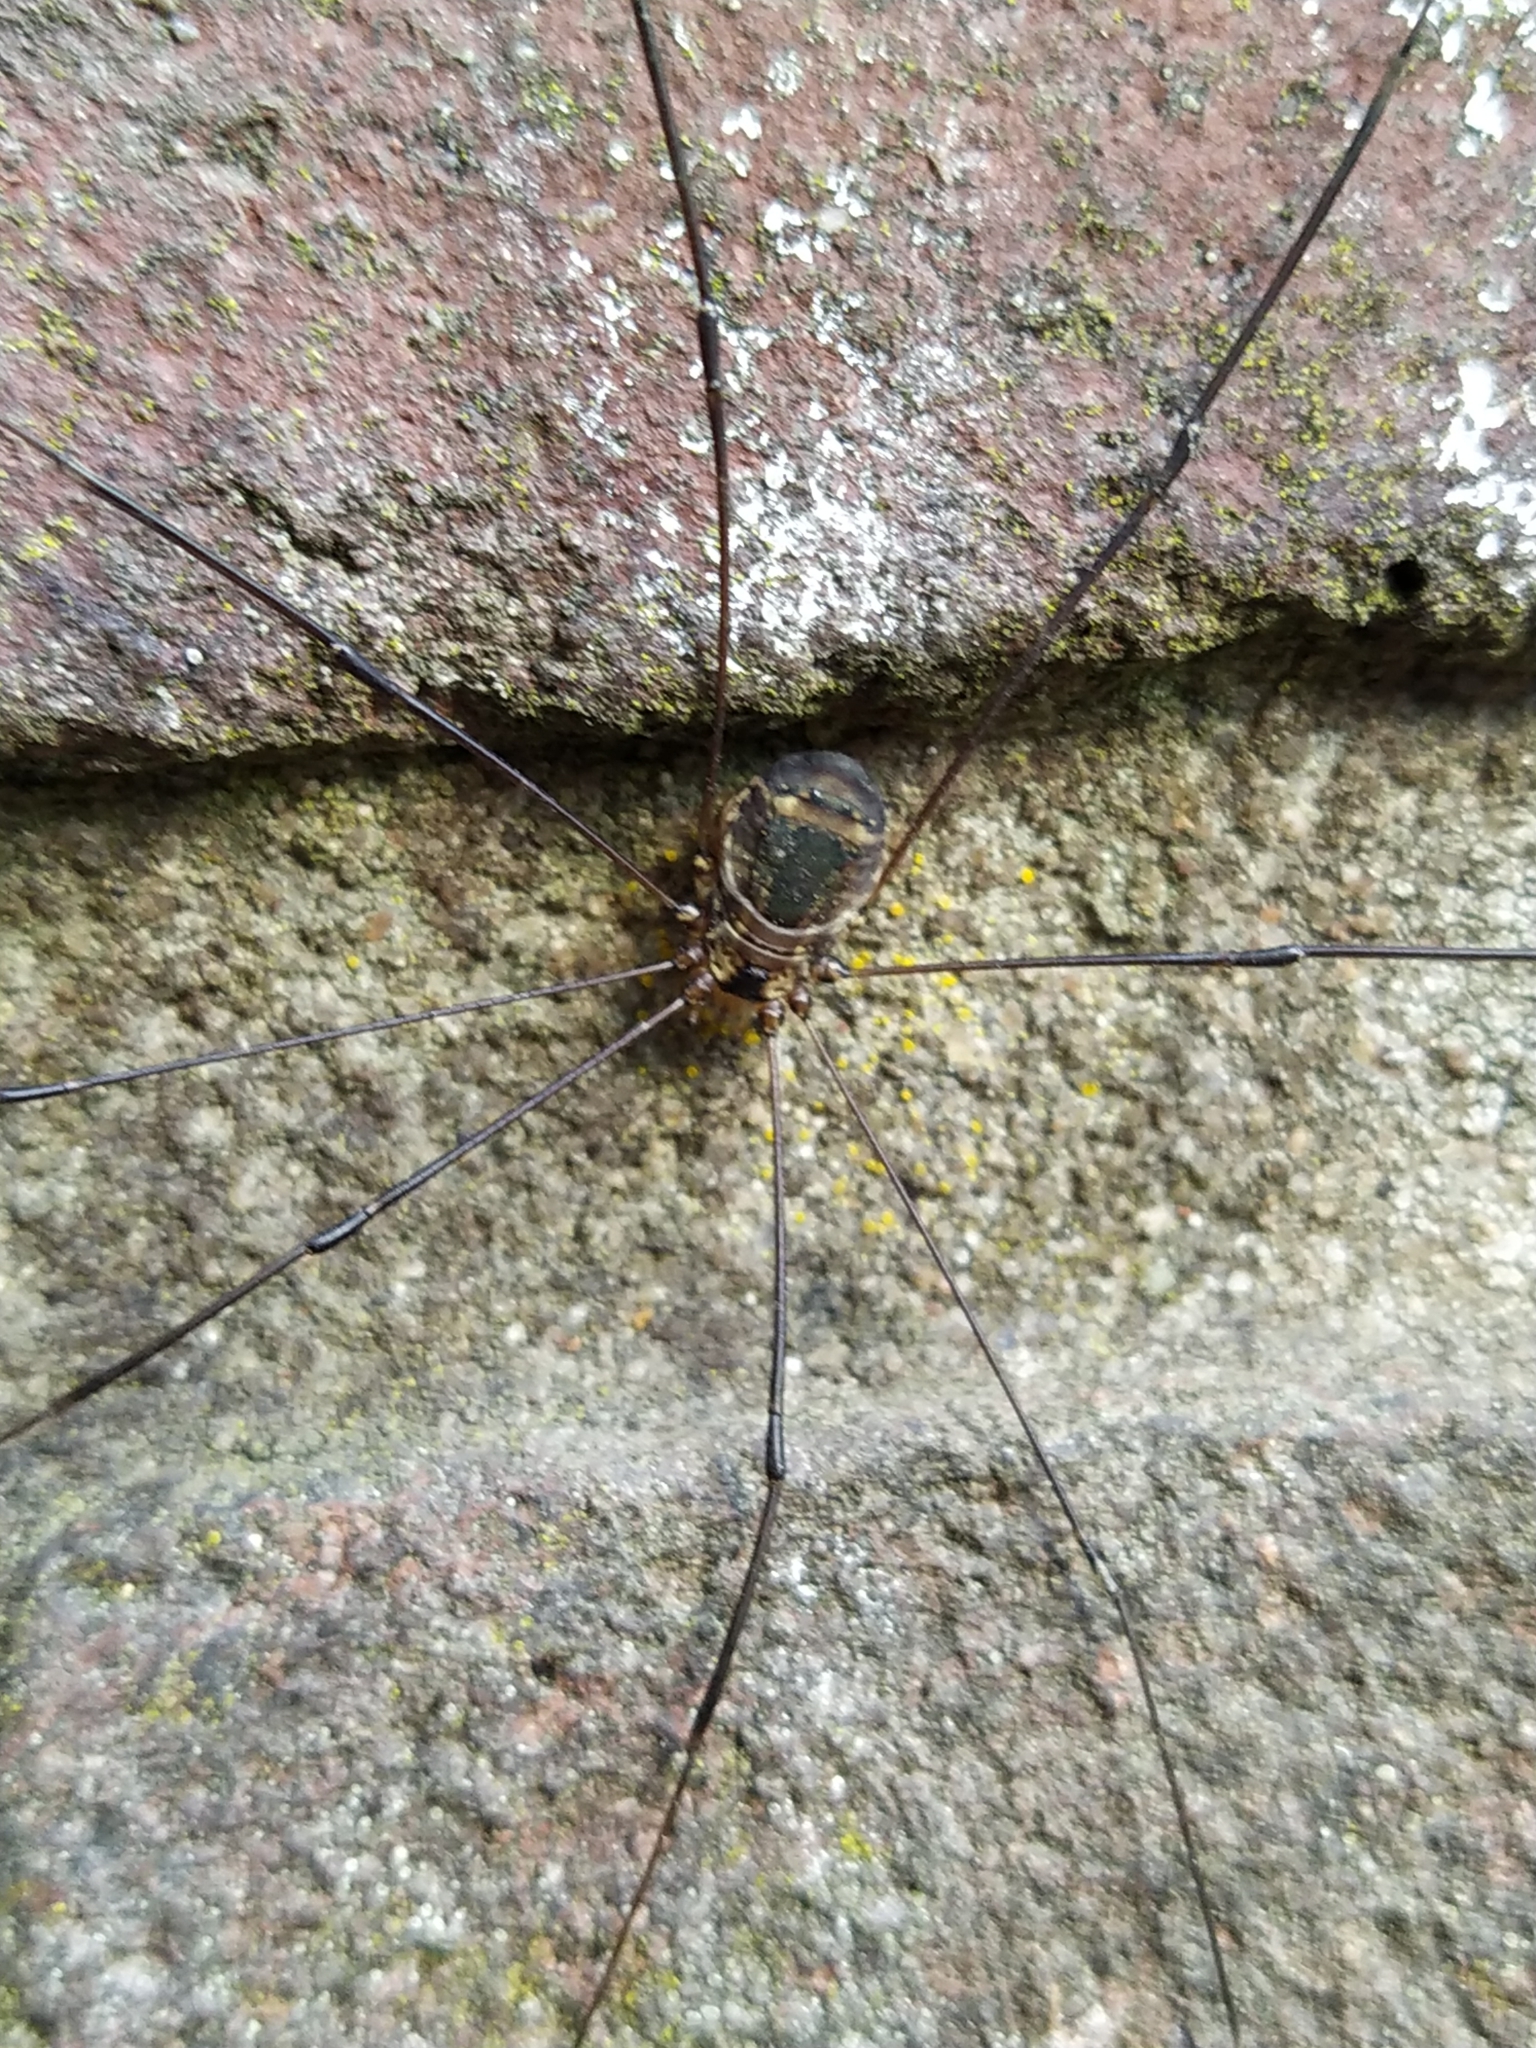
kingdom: Animalia
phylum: Arthropoda
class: Arachnida
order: Opiliones
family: Sclerosomatidae
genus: Leiobunum
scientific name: Leiobunum
